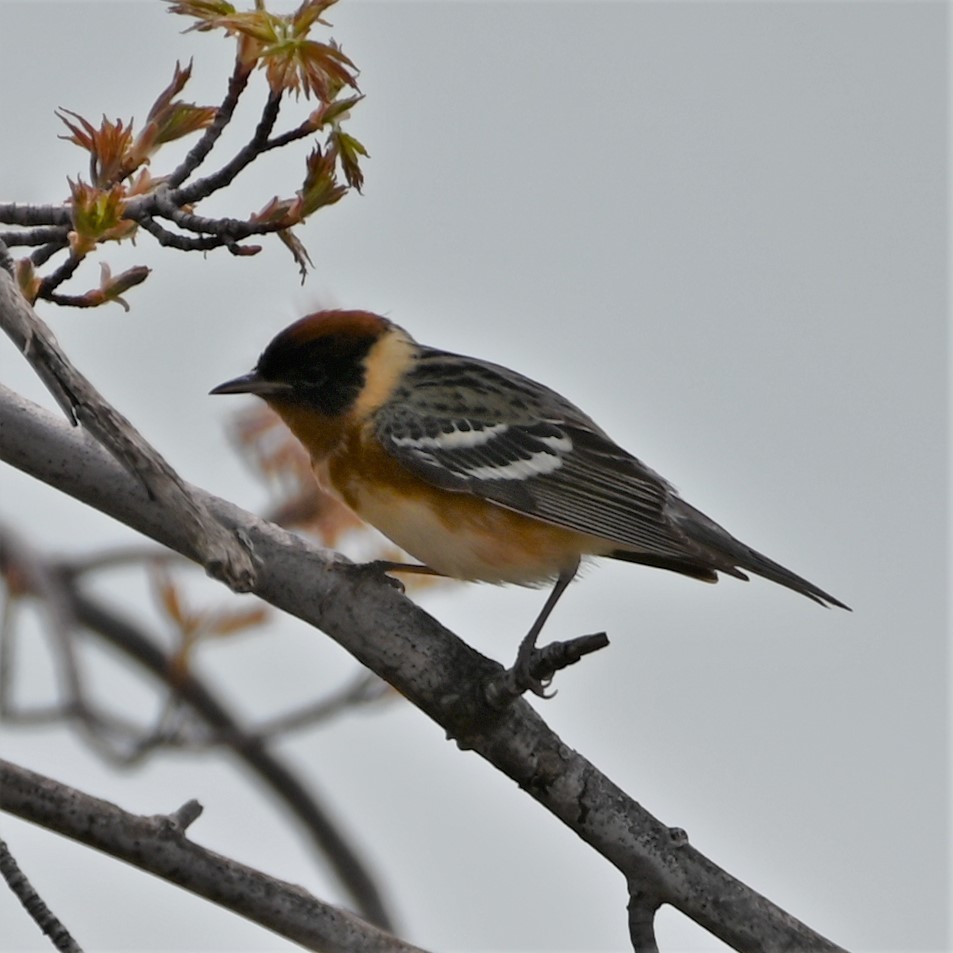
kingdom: Animalia
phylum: Chordata
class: Aves
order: Passeriformes
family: Parulidae
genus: Setophaga
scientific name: Setophaga castanea
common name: Bay-breasted warbler
